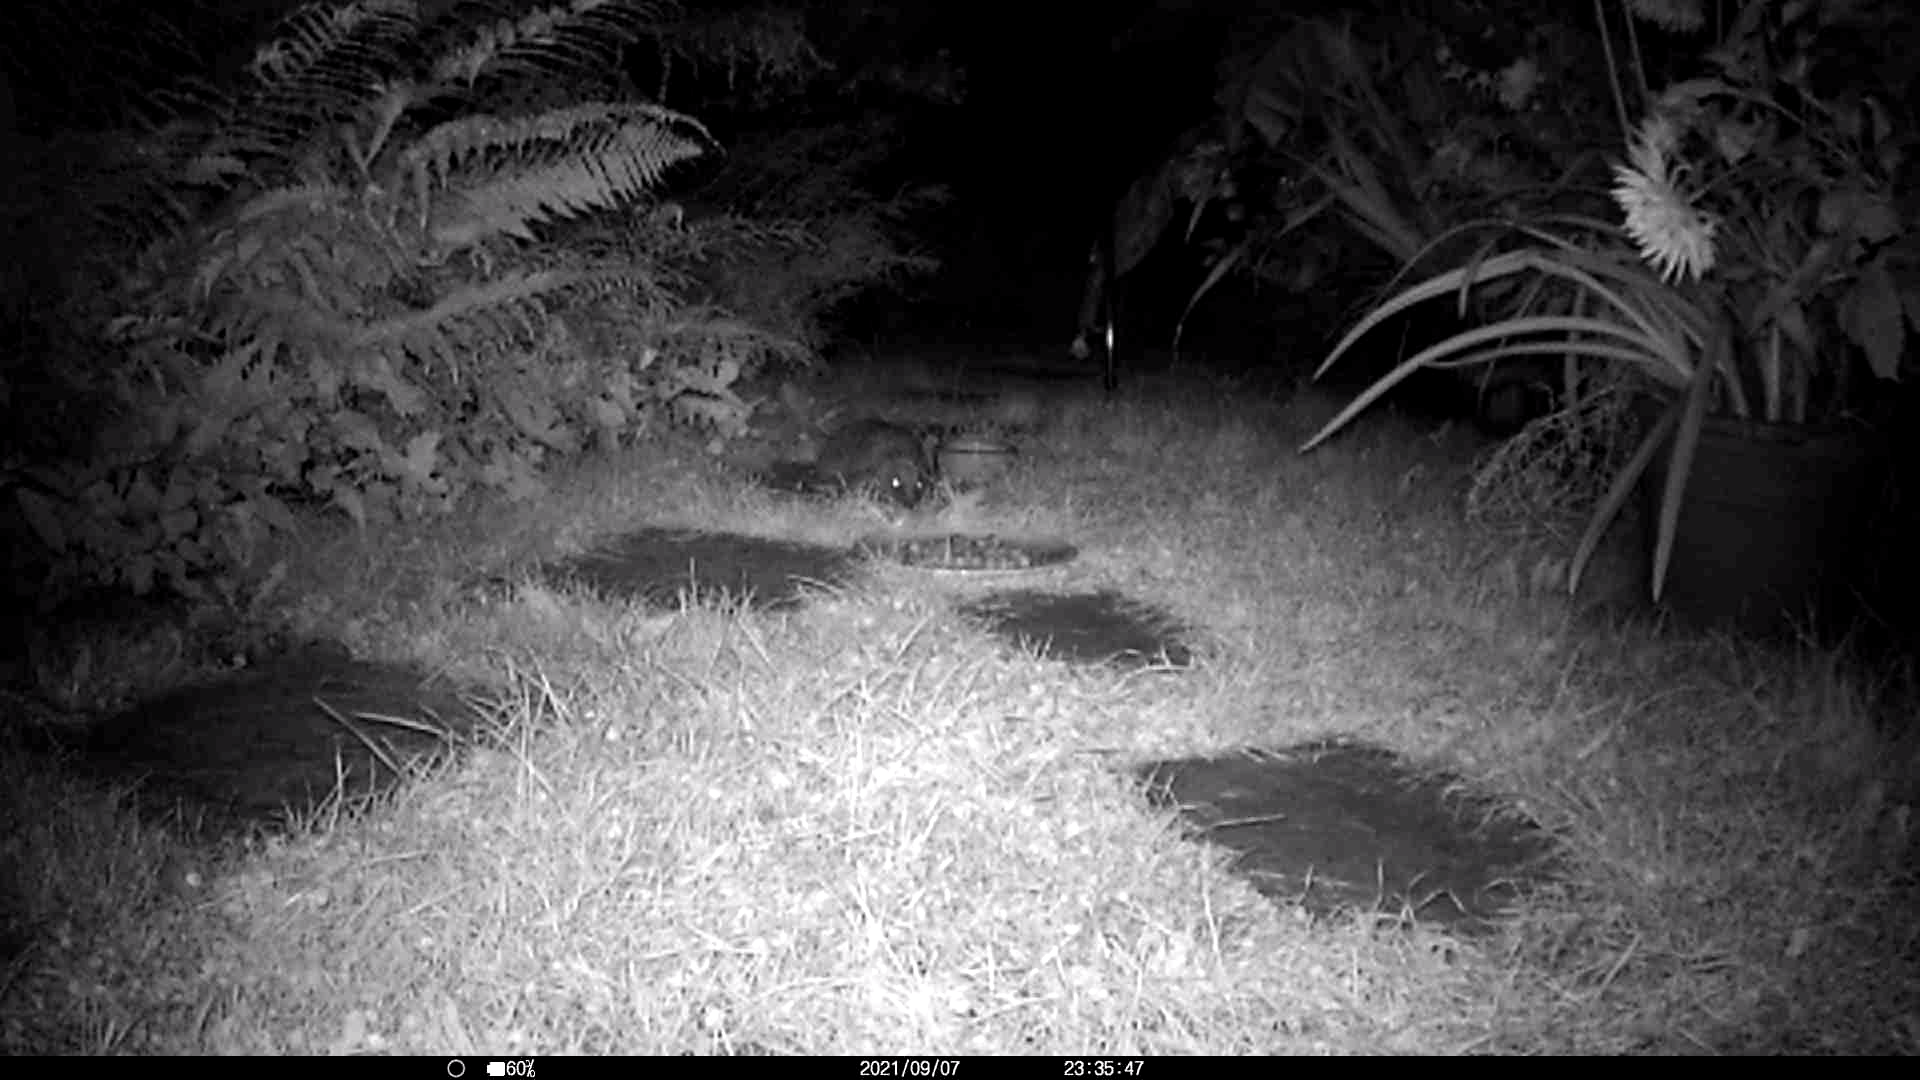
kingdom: Animalia
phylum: Chordata
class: Mammalia
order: Erinaceomorpha
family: Erinaceidae
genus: Erinaceus
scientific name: Erinaceus europaeus
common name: West european hedgehog
